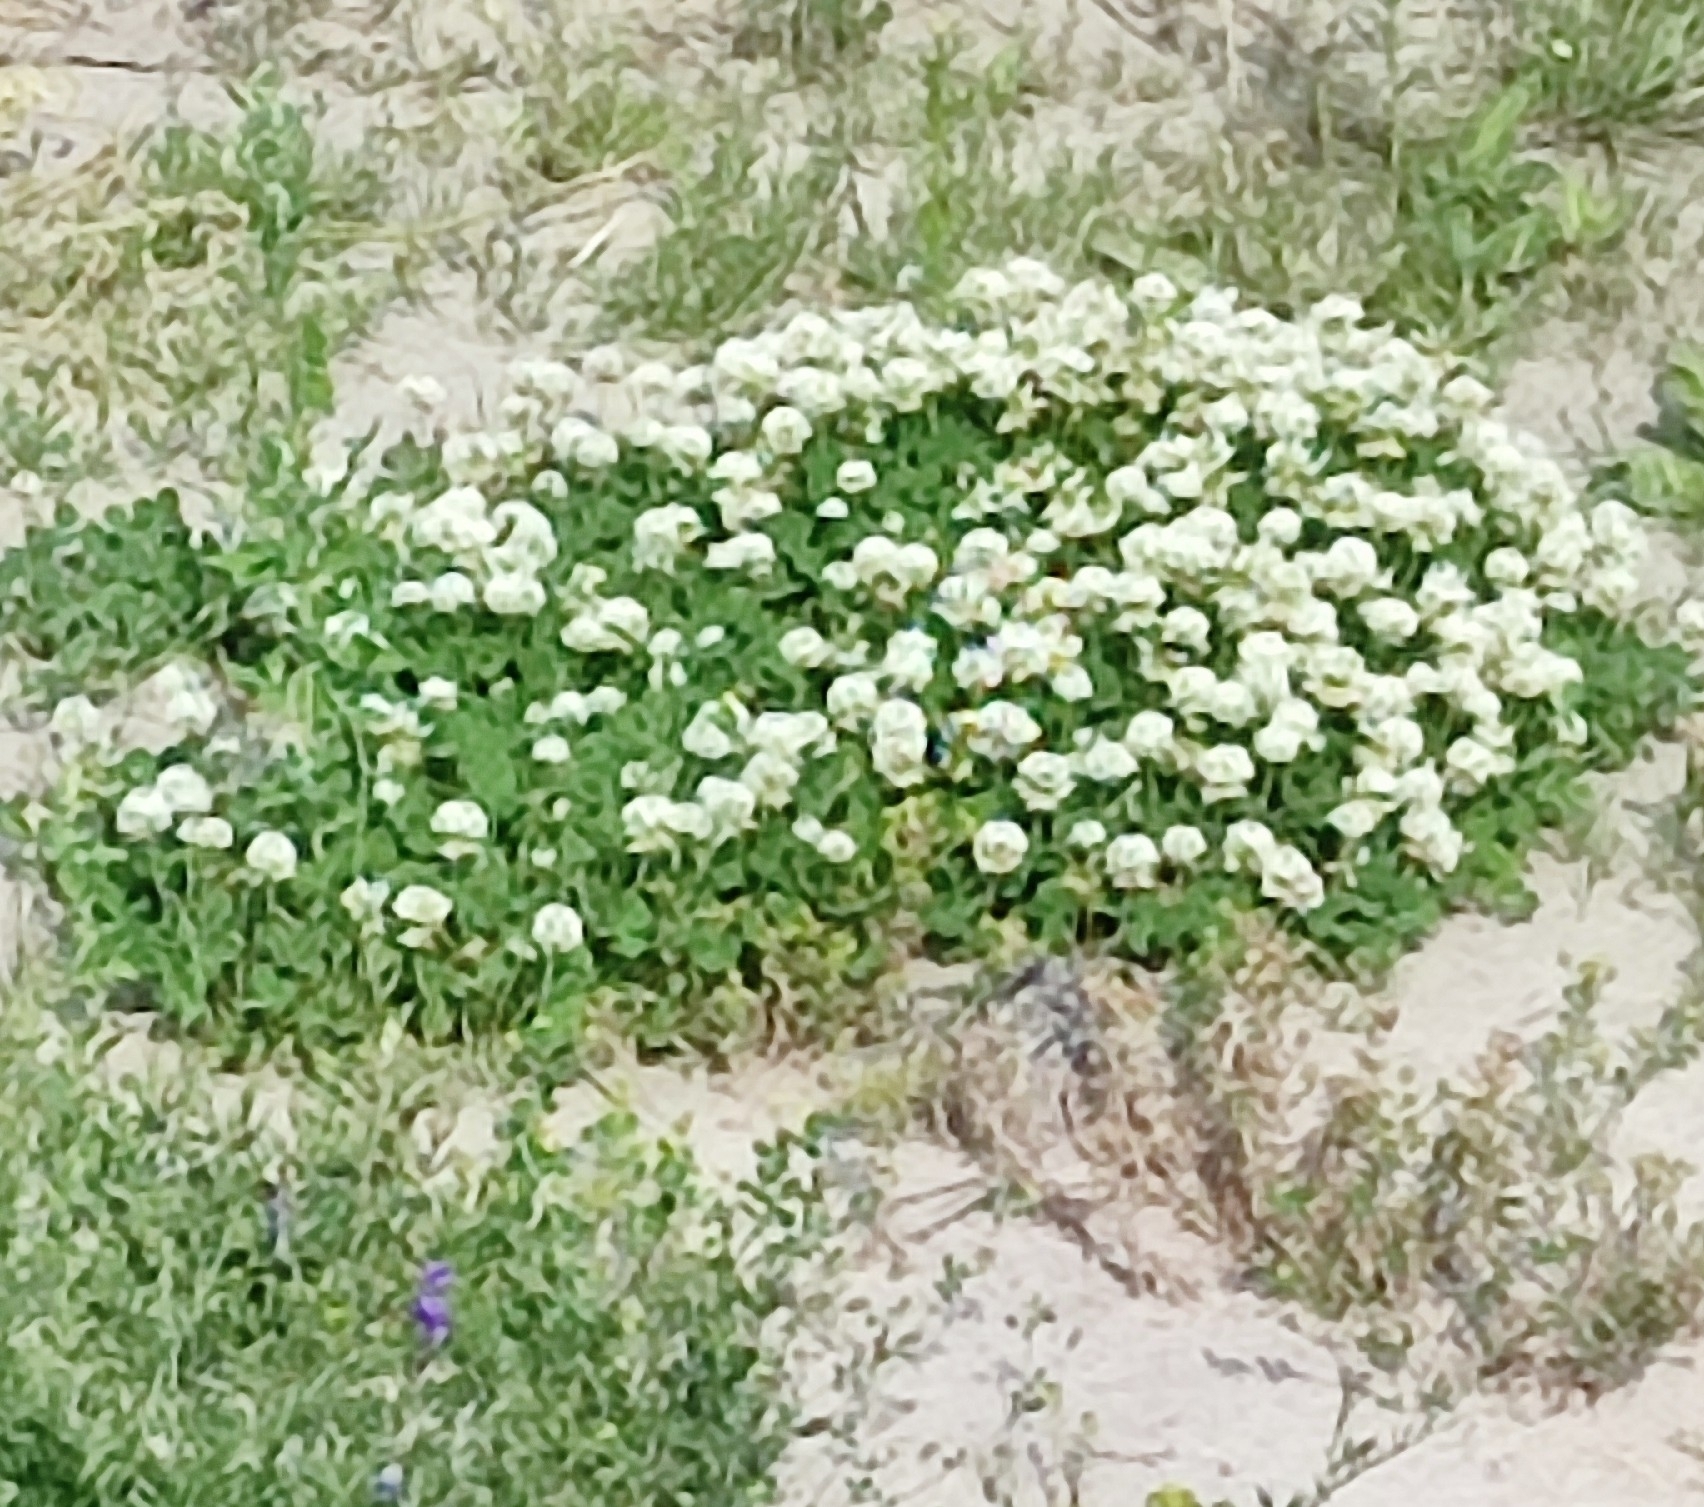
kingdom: Plantae
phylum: Tracheophyta
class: Magnoliopsida
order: Fabales
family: Fabaceae
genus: Trifolium
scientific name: Trifolium repens
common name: White clover
